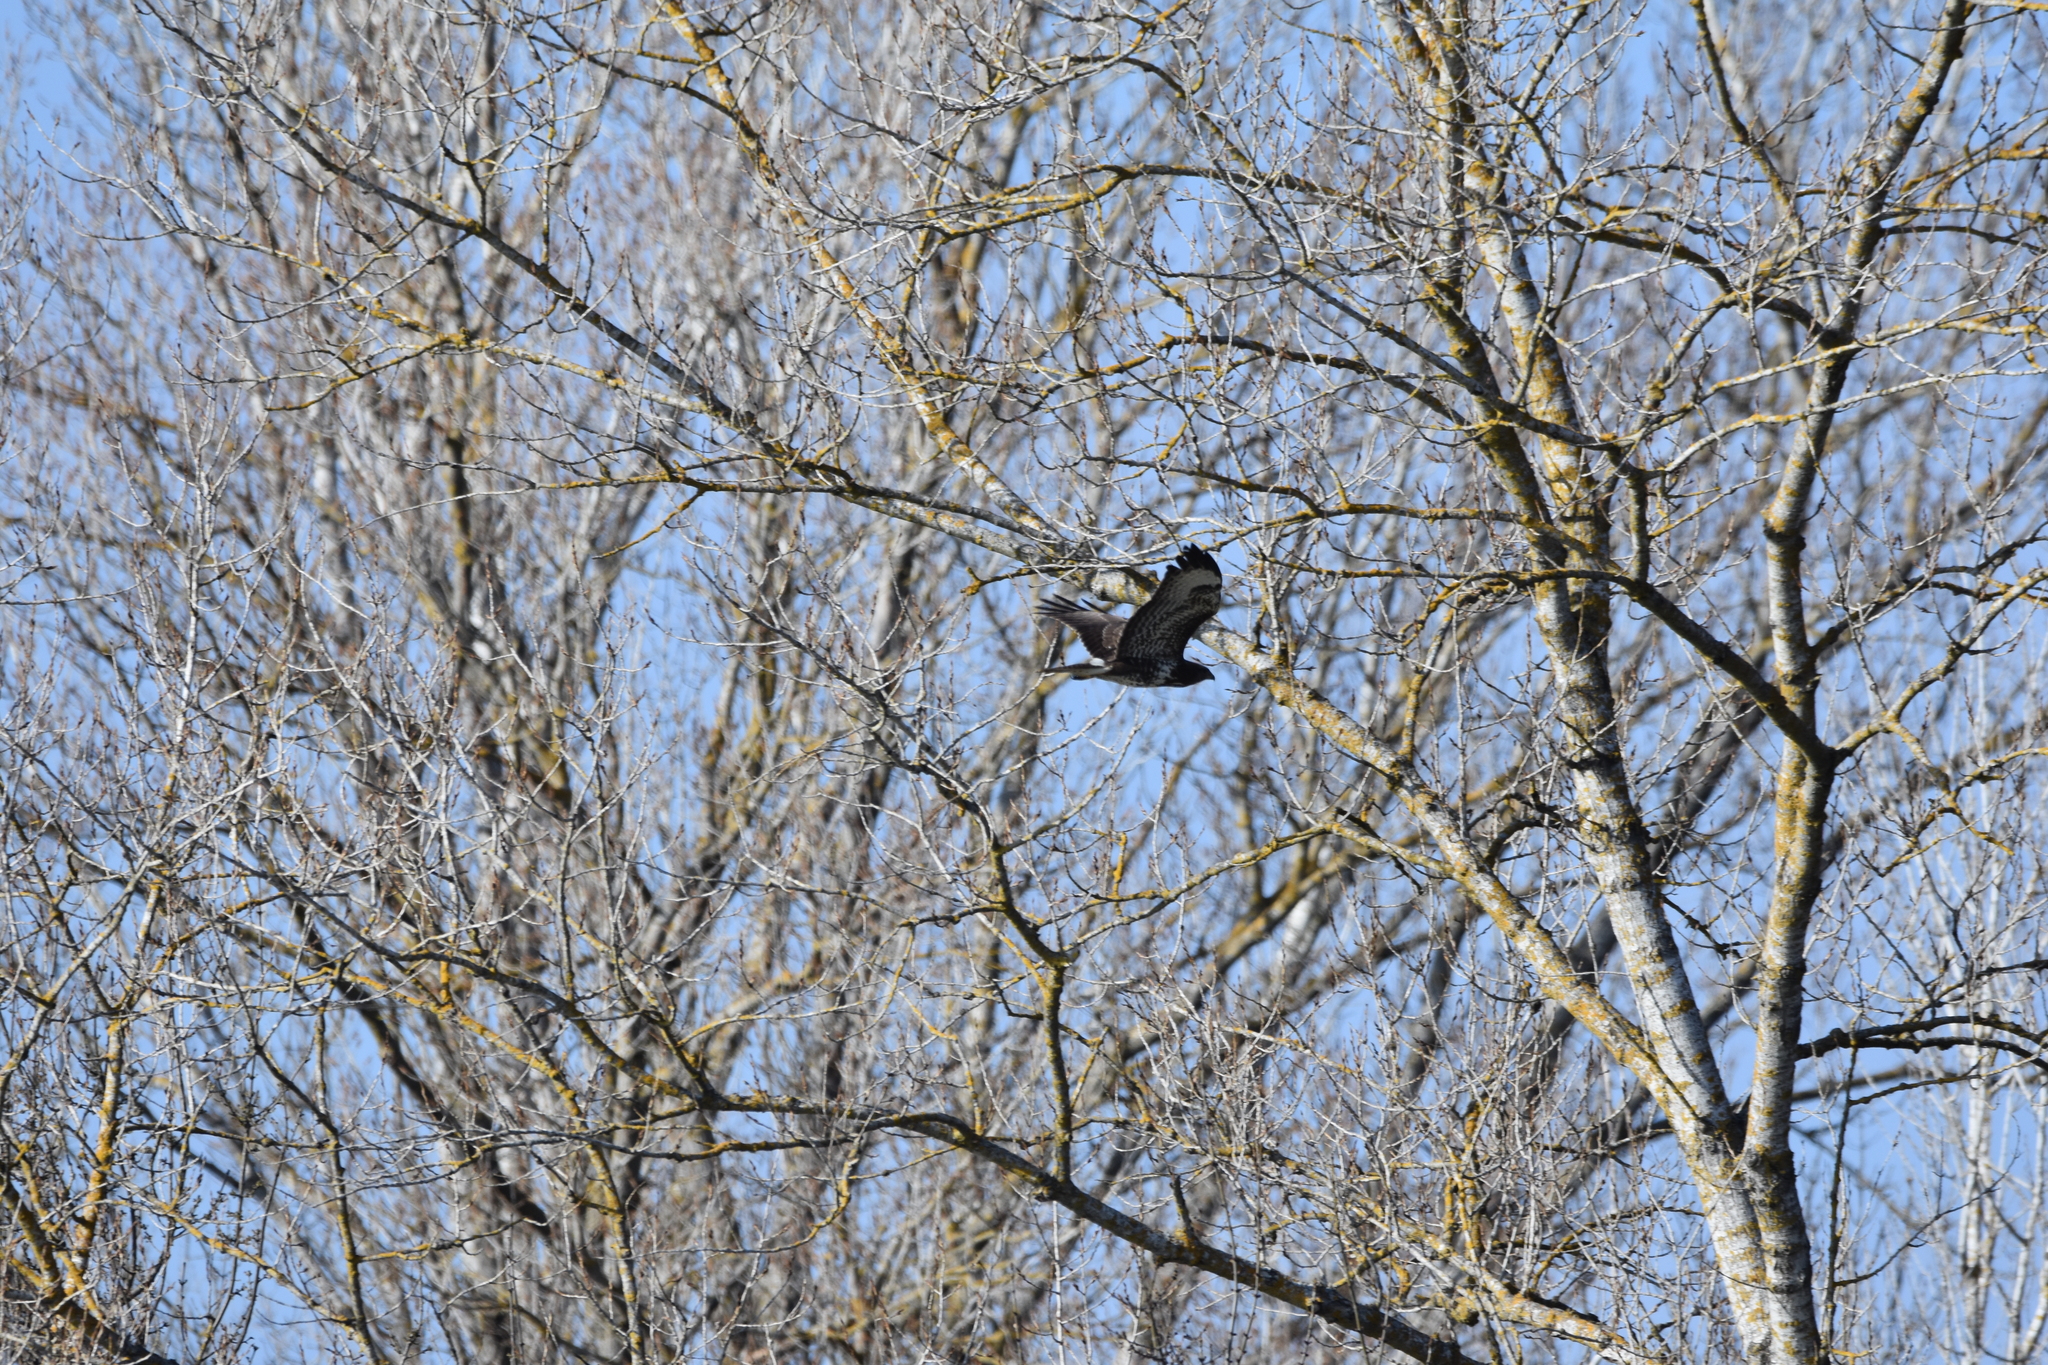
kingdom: Animalia
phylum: Chordata
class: Aves
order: Accipitriformes
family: Accipitridae
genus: Buteo
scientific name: Buteo buteo
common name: Common buzzard
